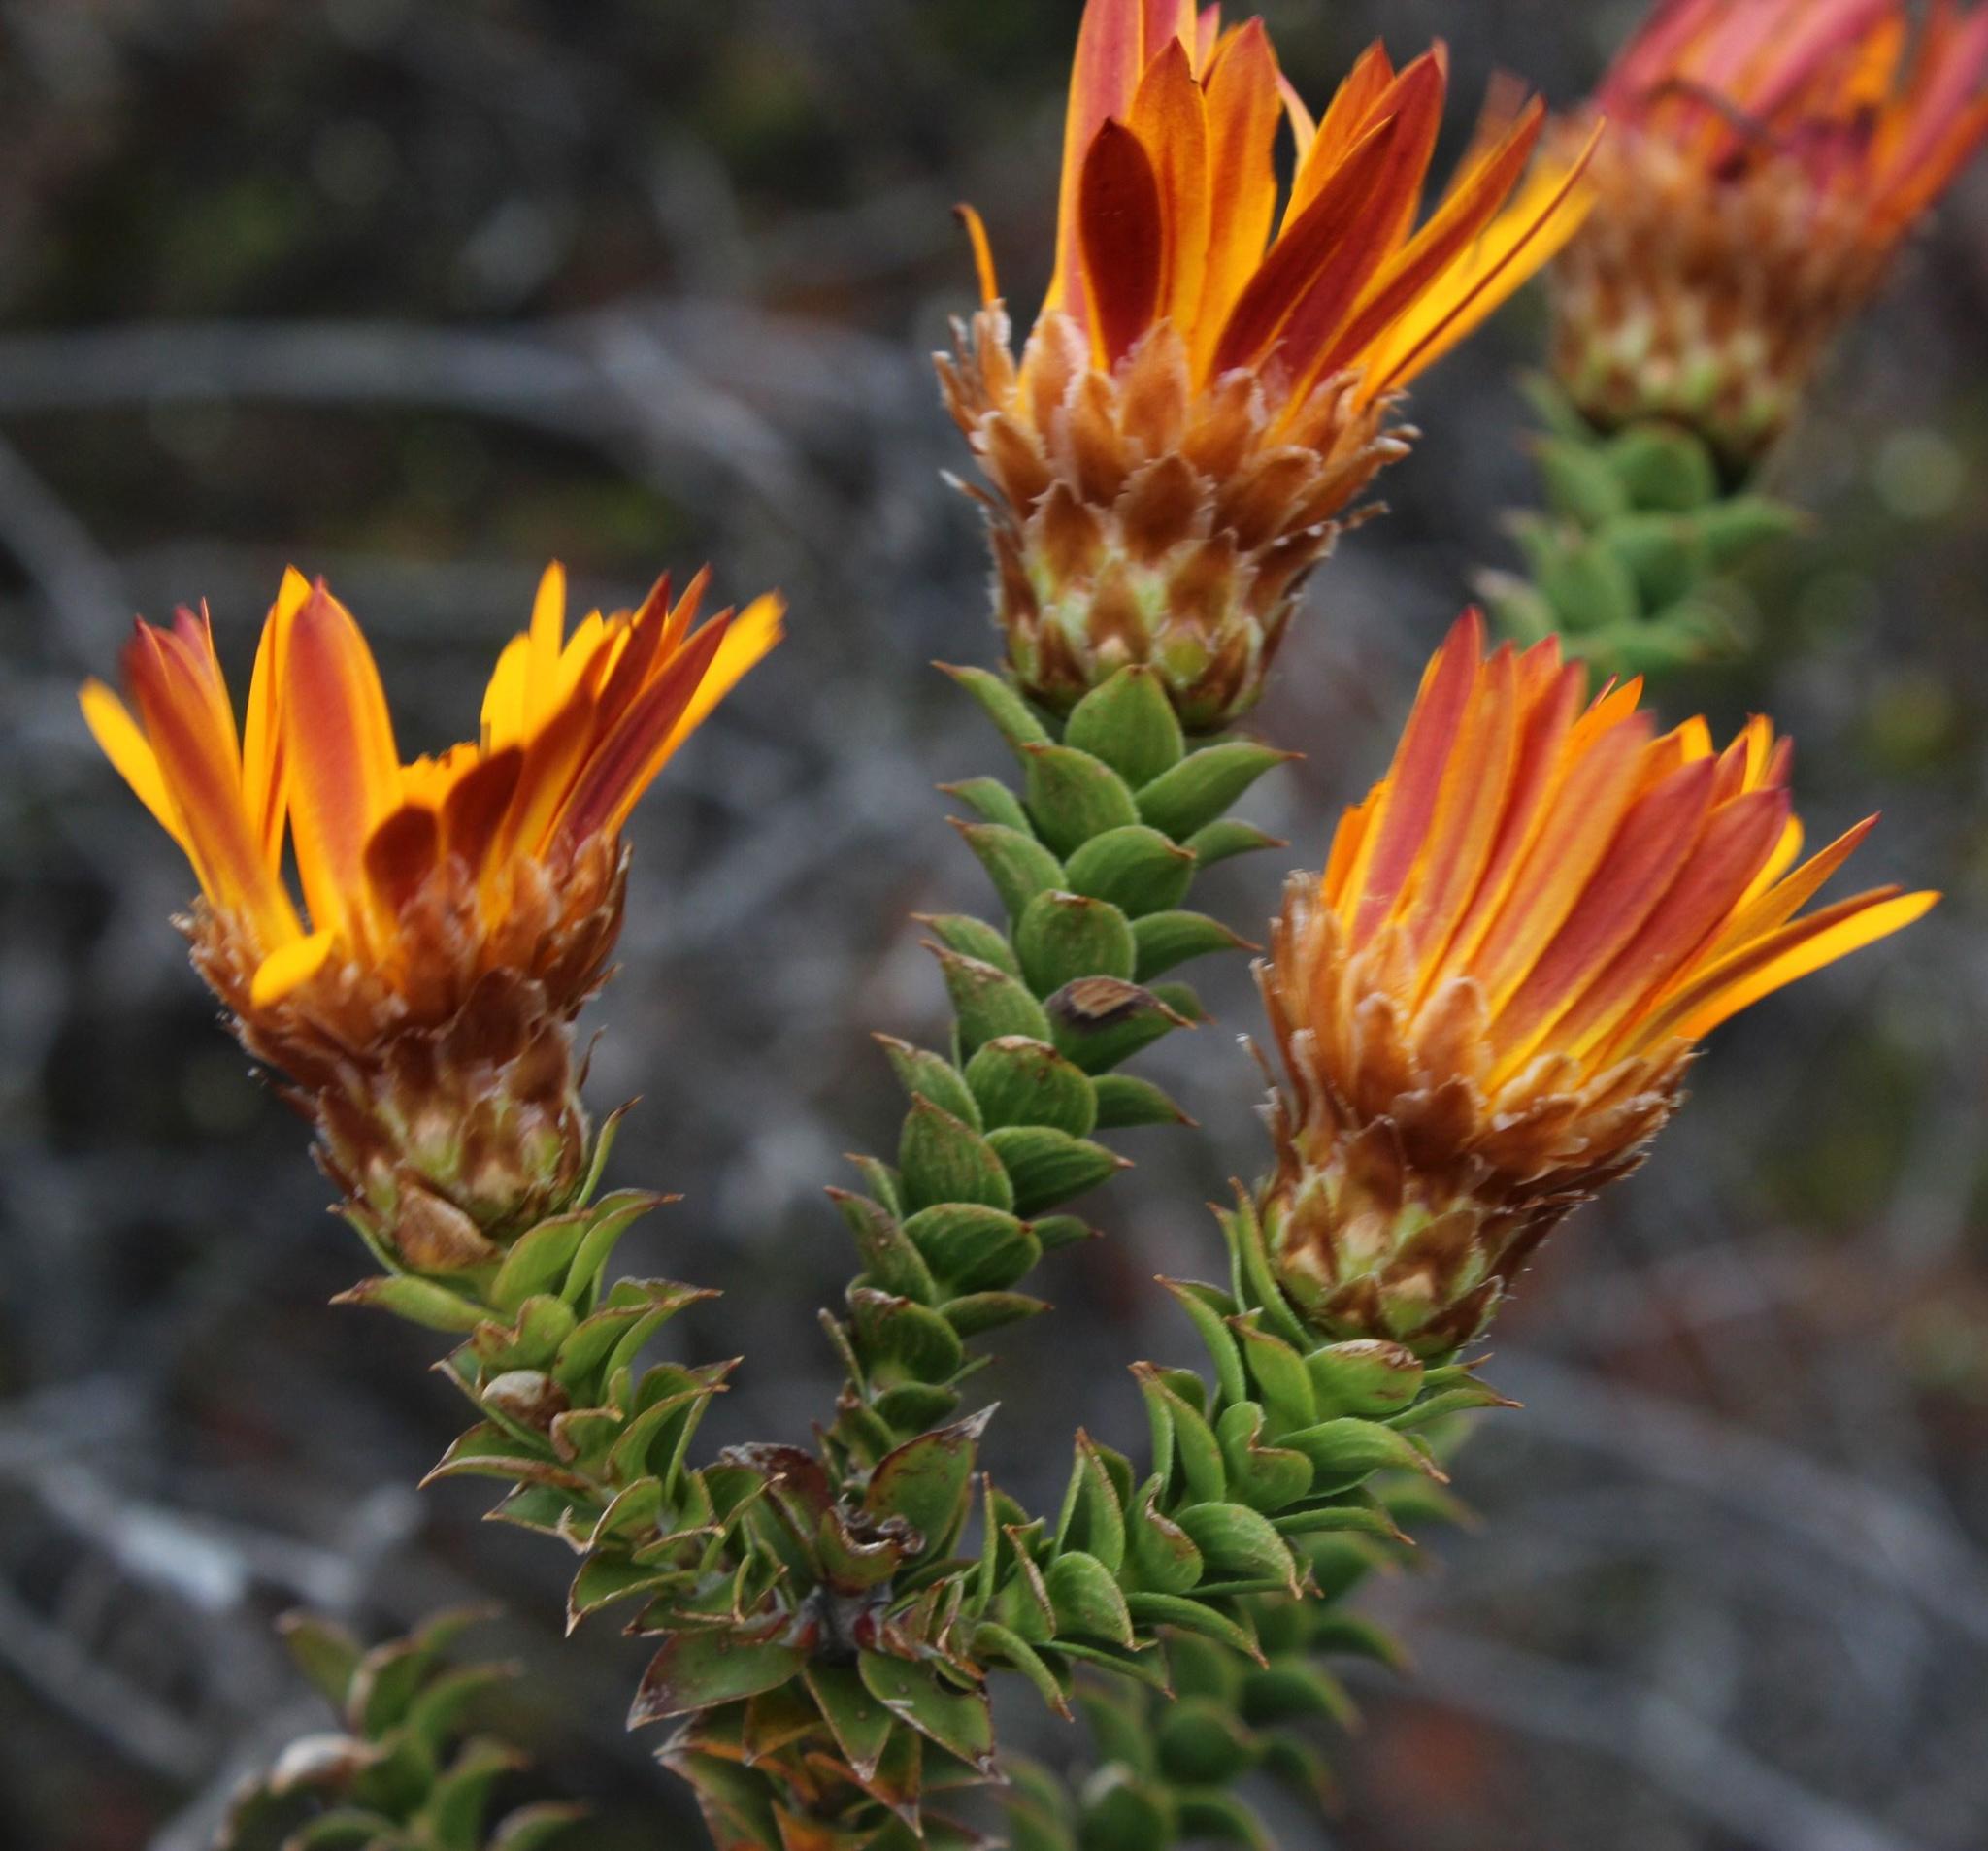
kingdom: Plantae
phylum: Tracheophyta
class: Magnoliopsida
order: Asterales
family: Asteraceae
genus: Oedera
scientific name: Oedera speciosa
